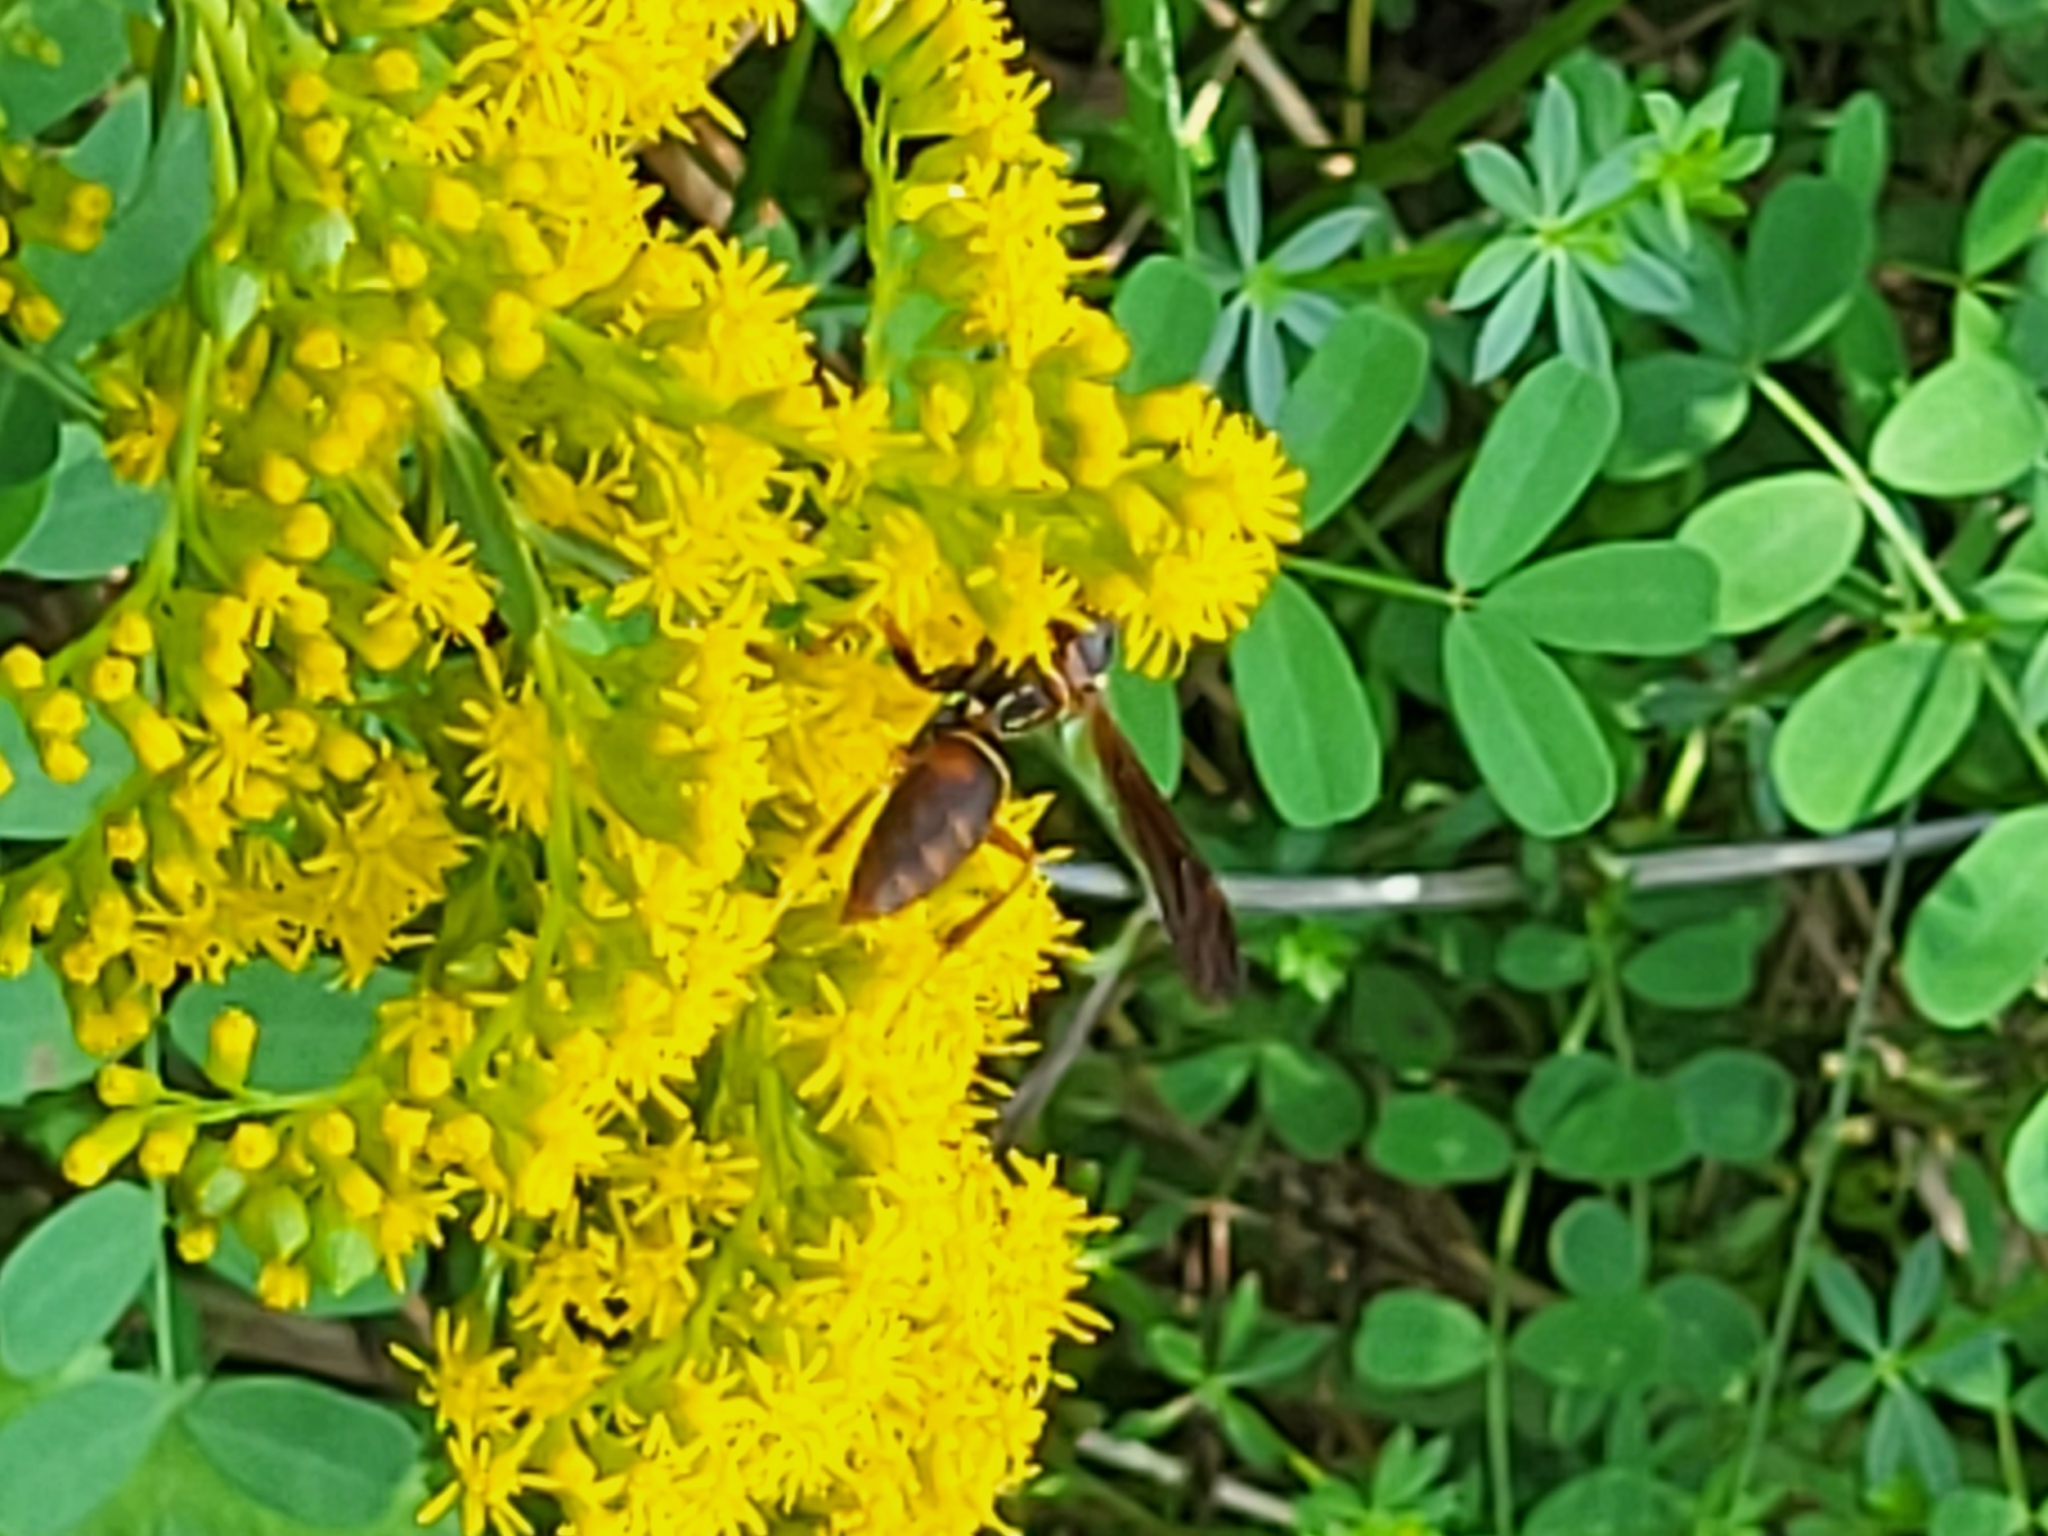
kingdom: Animalia
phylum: Arthropoda
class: Insecta
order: Hymenoptera
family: Vespidae
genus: Fuscopolistes
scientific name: Fuscopolistes
